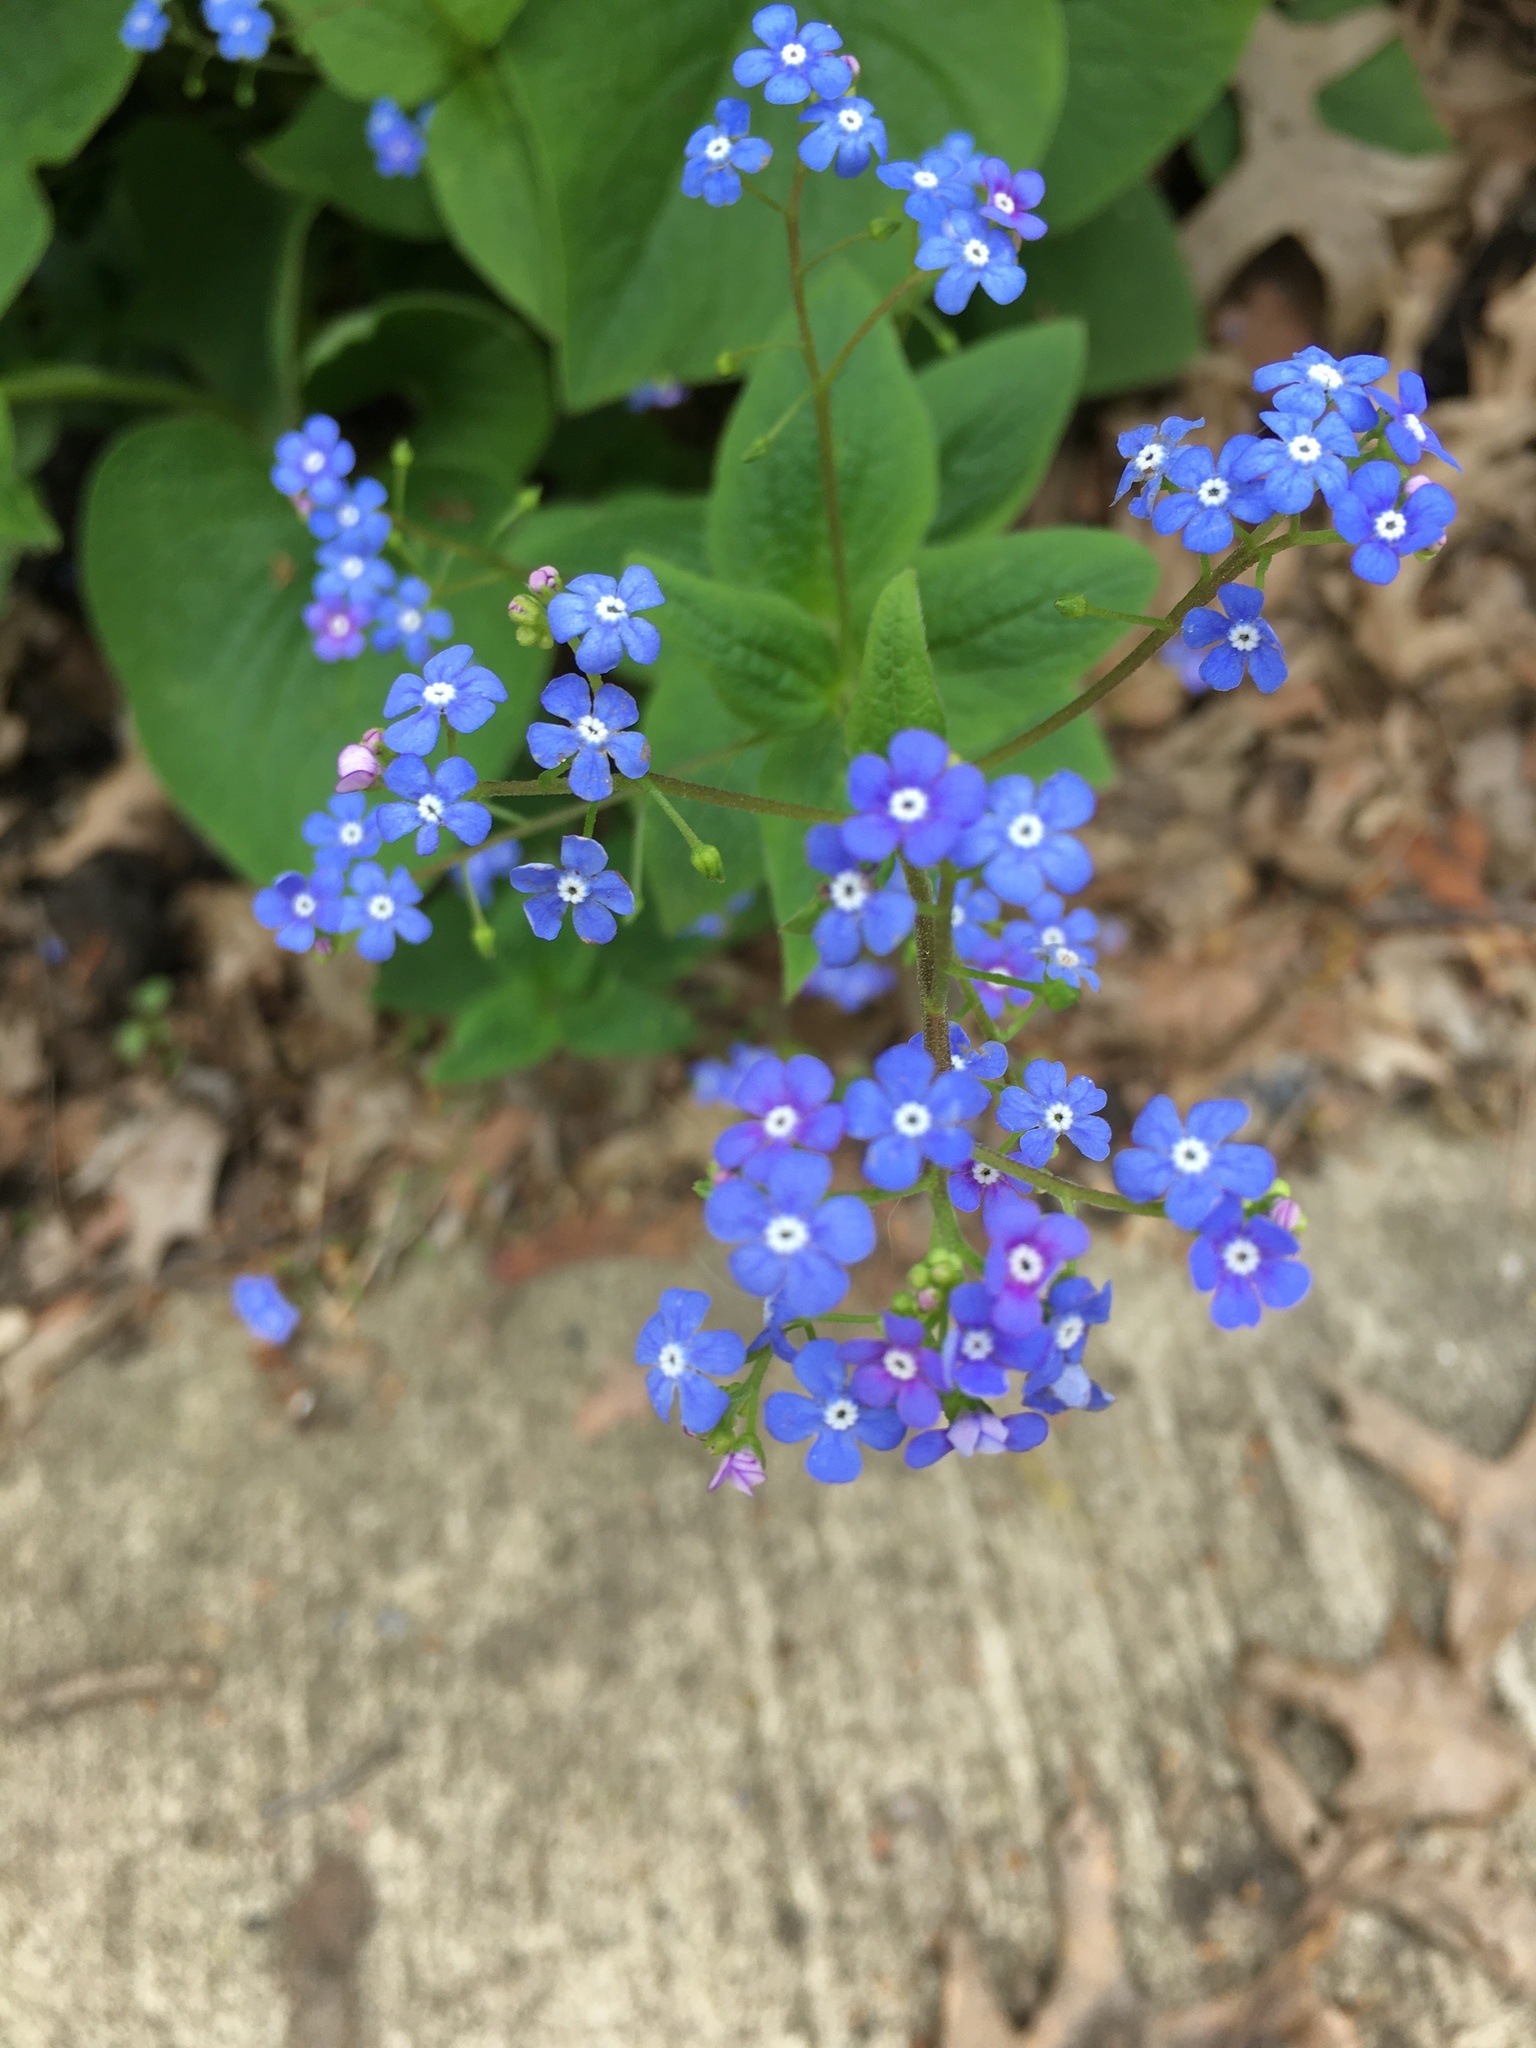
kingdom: Plantae
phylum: Tracheophyta
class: Magnoliopsida
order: Boraginales
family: Boraginaceae
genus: Brunnera
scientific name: Brunnera macrophylla
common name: Great forget-me-not
